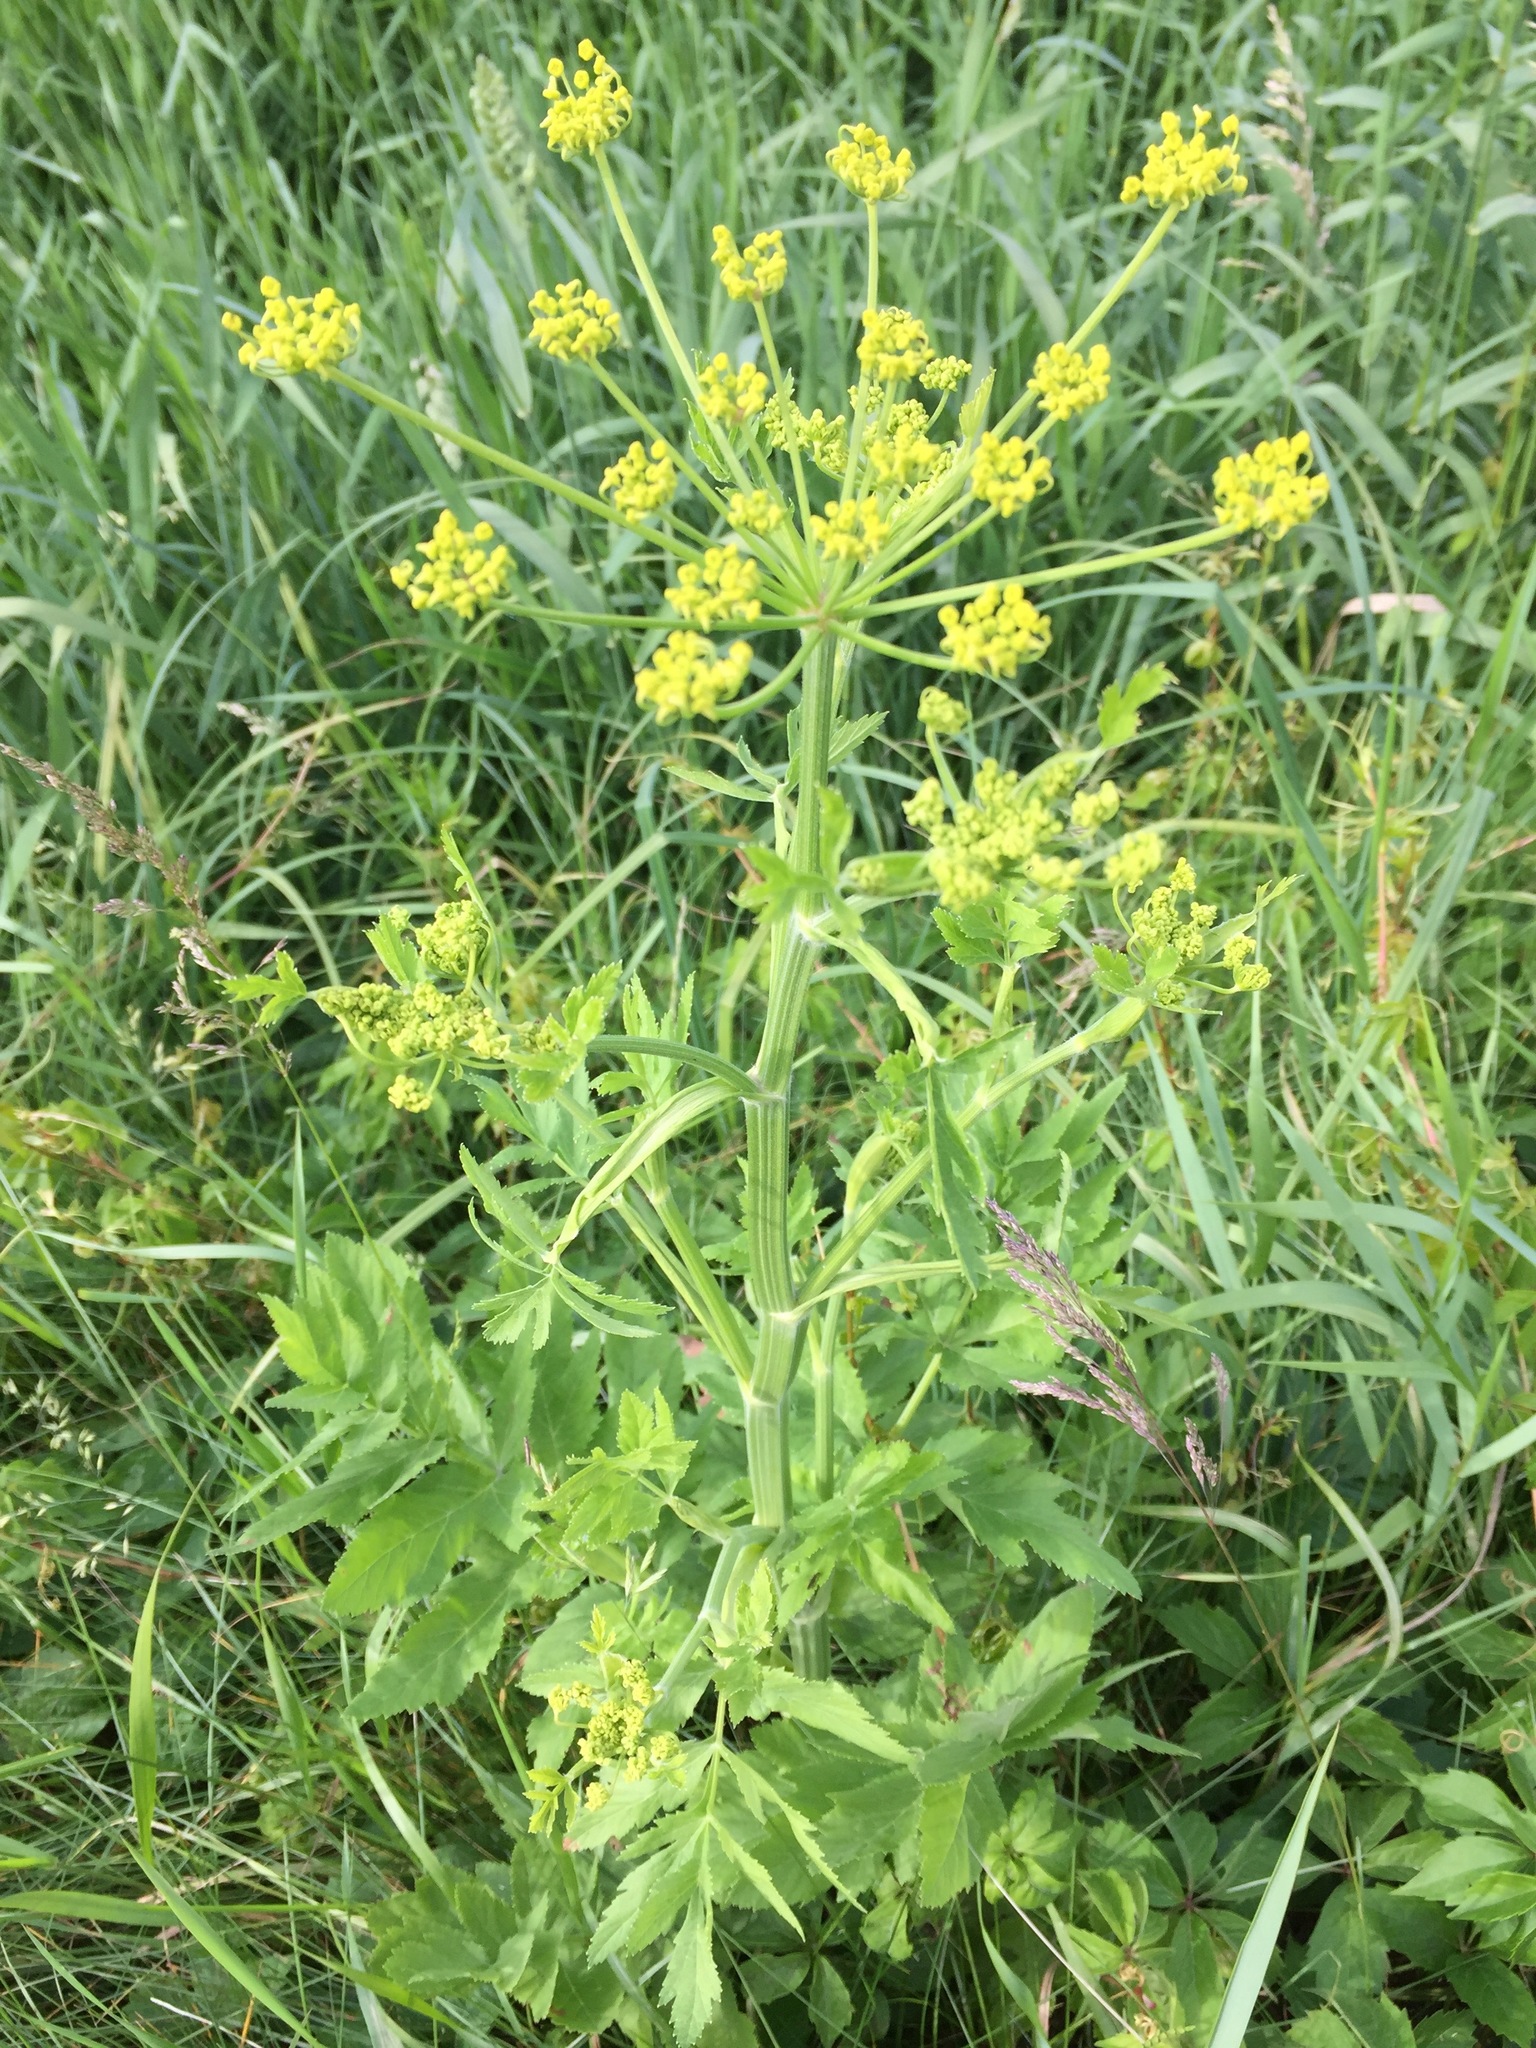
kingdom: Plantae
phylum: Tracheophyta
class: Magnoliopsida
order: Apiales
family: Apiaceae
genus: Pastinaca
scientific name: Pastinaca sativa
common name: Wild parsnip
